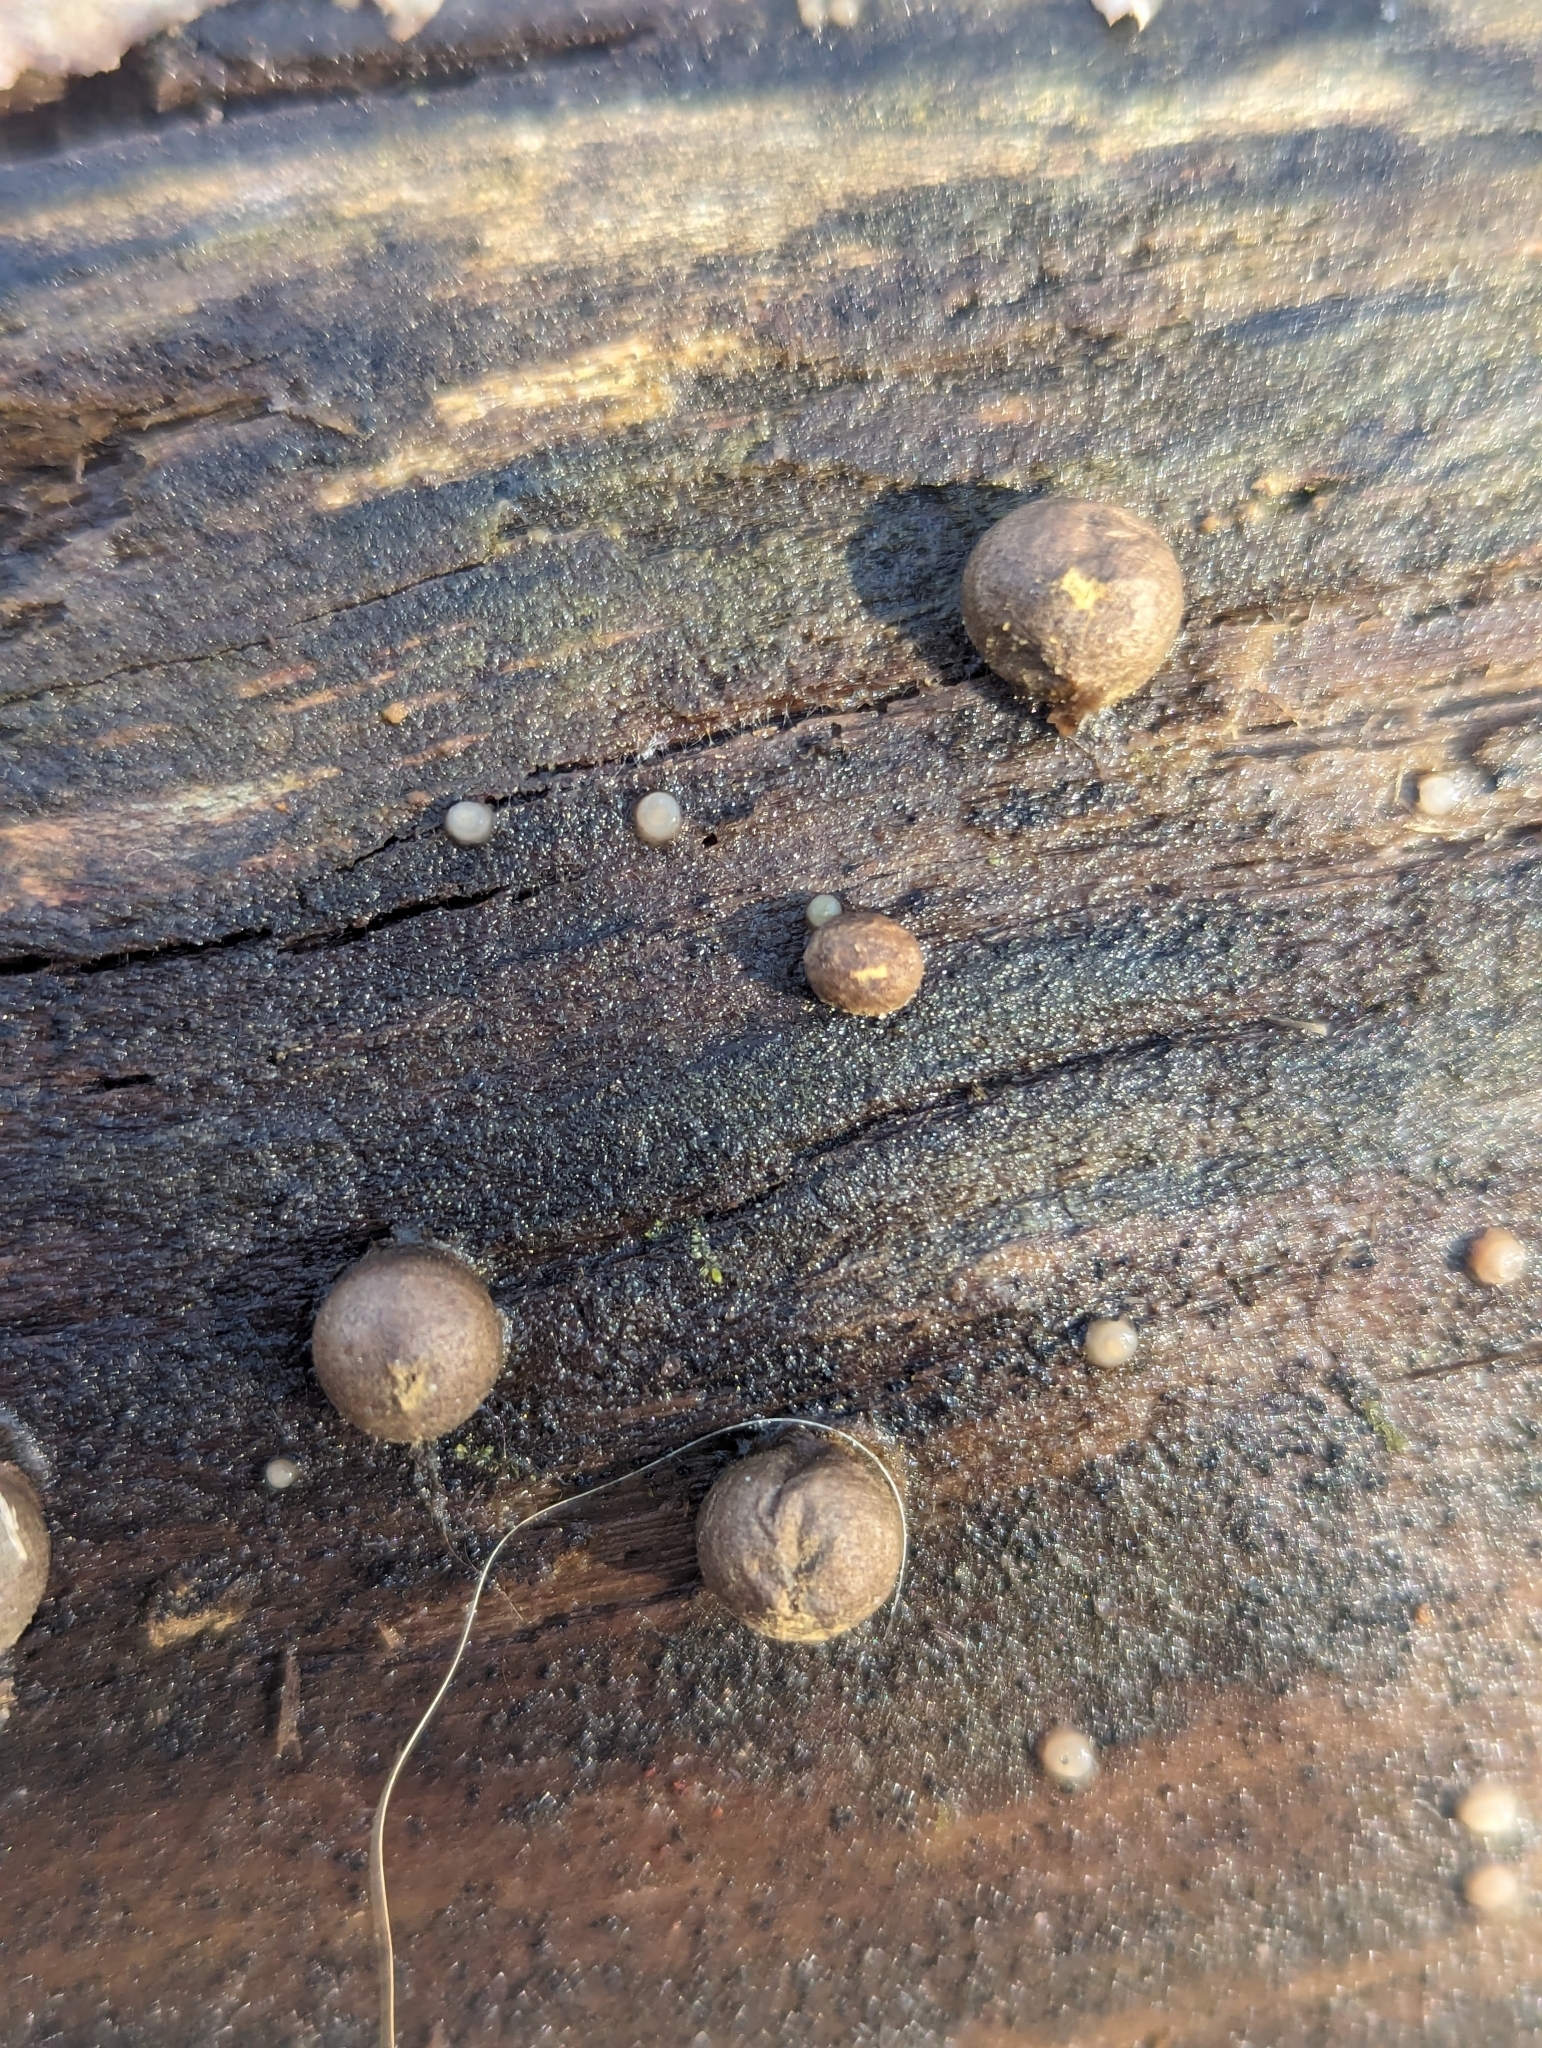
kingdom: Fungi
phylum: Basidiomycota
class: Atractiellomycetes
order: Atractiellales
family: Phleogenaceae
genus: Helicogloea
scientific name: Helicogloea compressa
